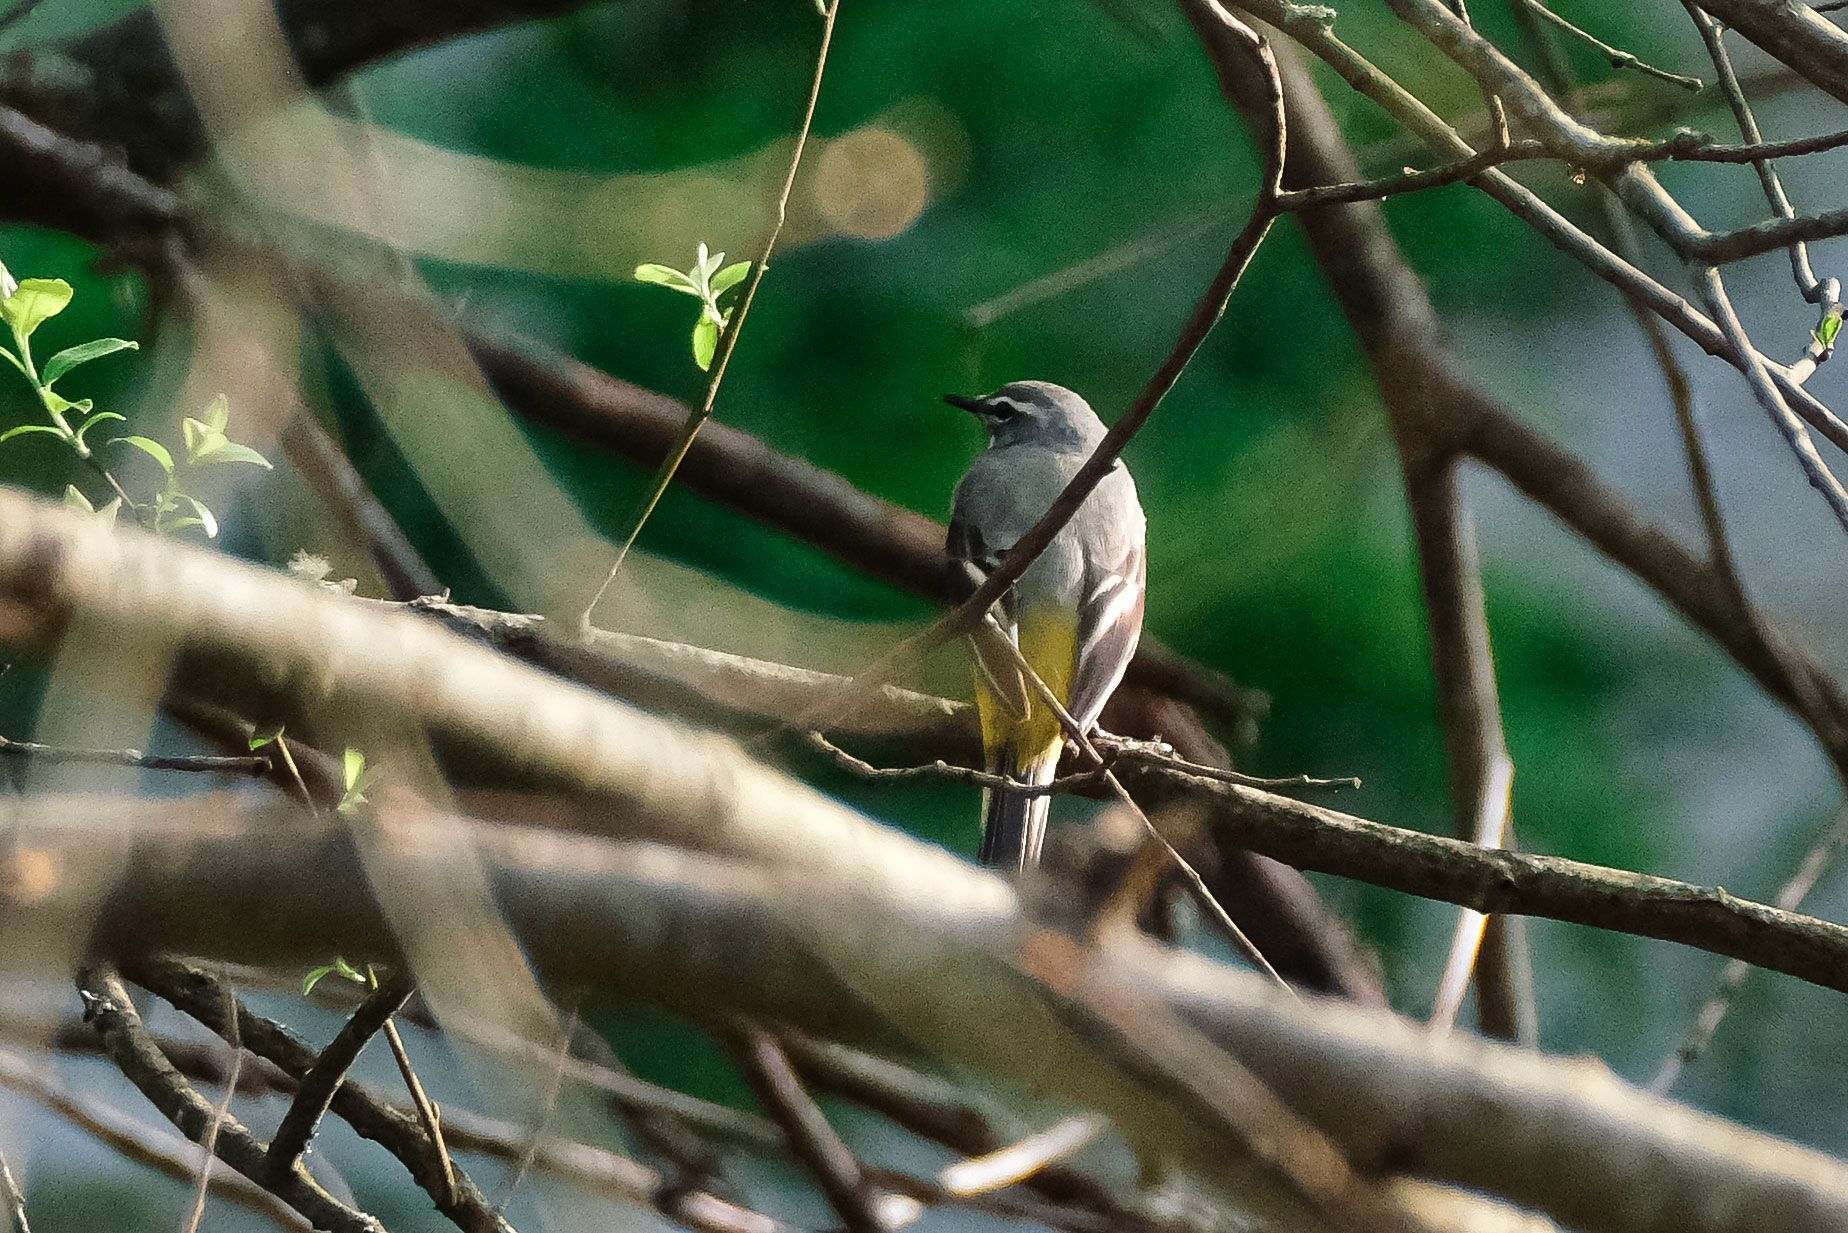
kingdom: Animalia
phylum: Chordata
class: Aves
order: Passeriformes
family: Motacillidae
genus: Motacilla
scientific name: Motacilla cinerea
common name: Grey wagtail
